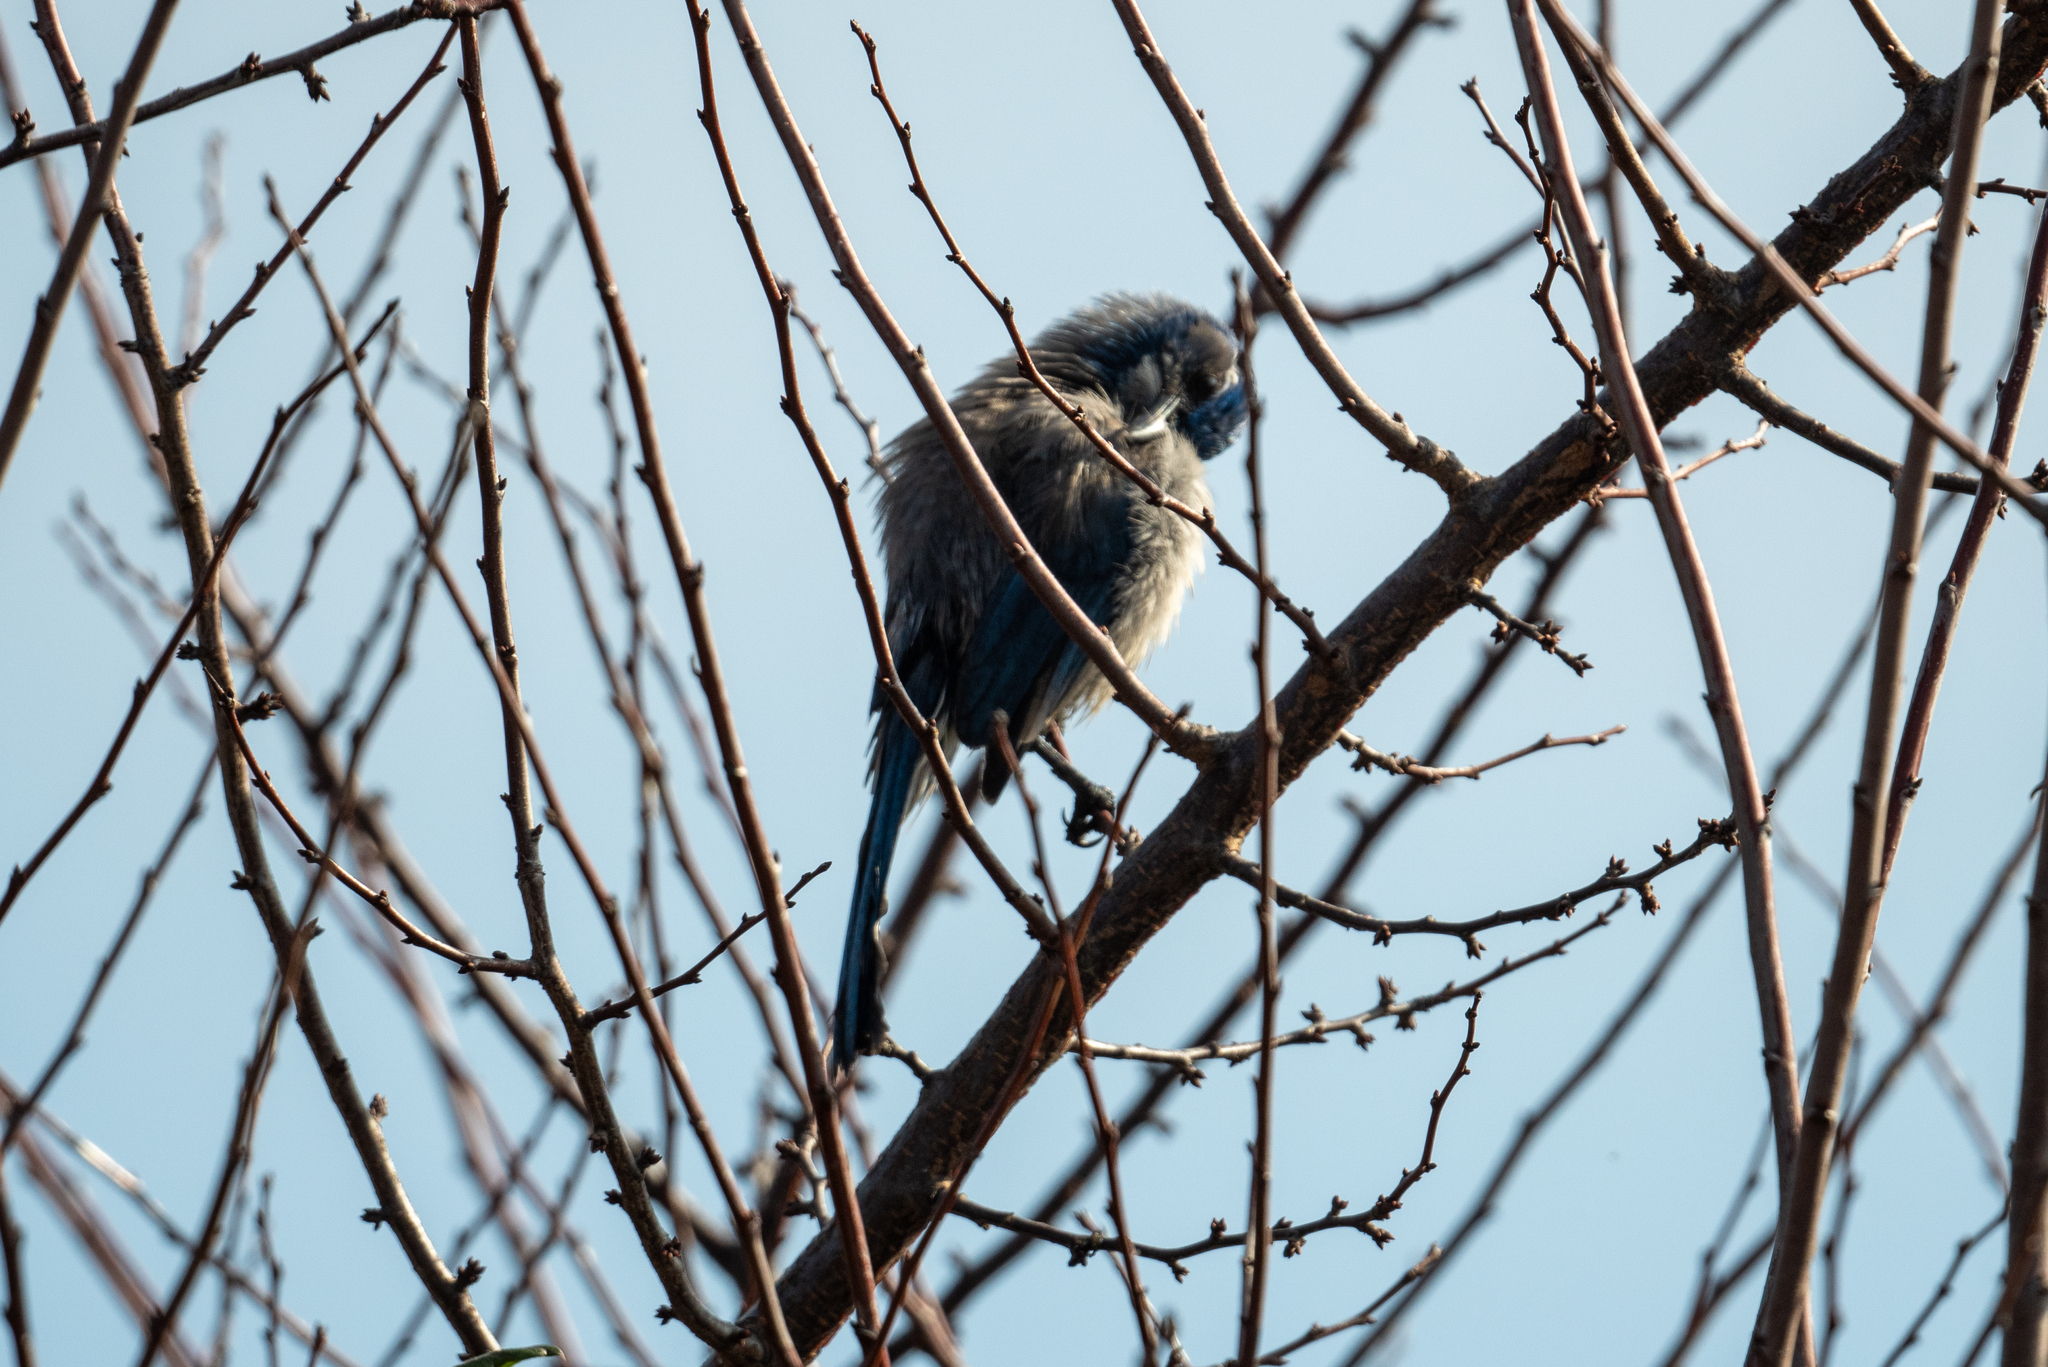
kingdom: Animalia
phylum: Chordata
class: Aves
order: Passeriformes
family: Corvidae
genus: Aphelocoma
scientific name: Aphelocoma californica
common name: California scrub-jay
